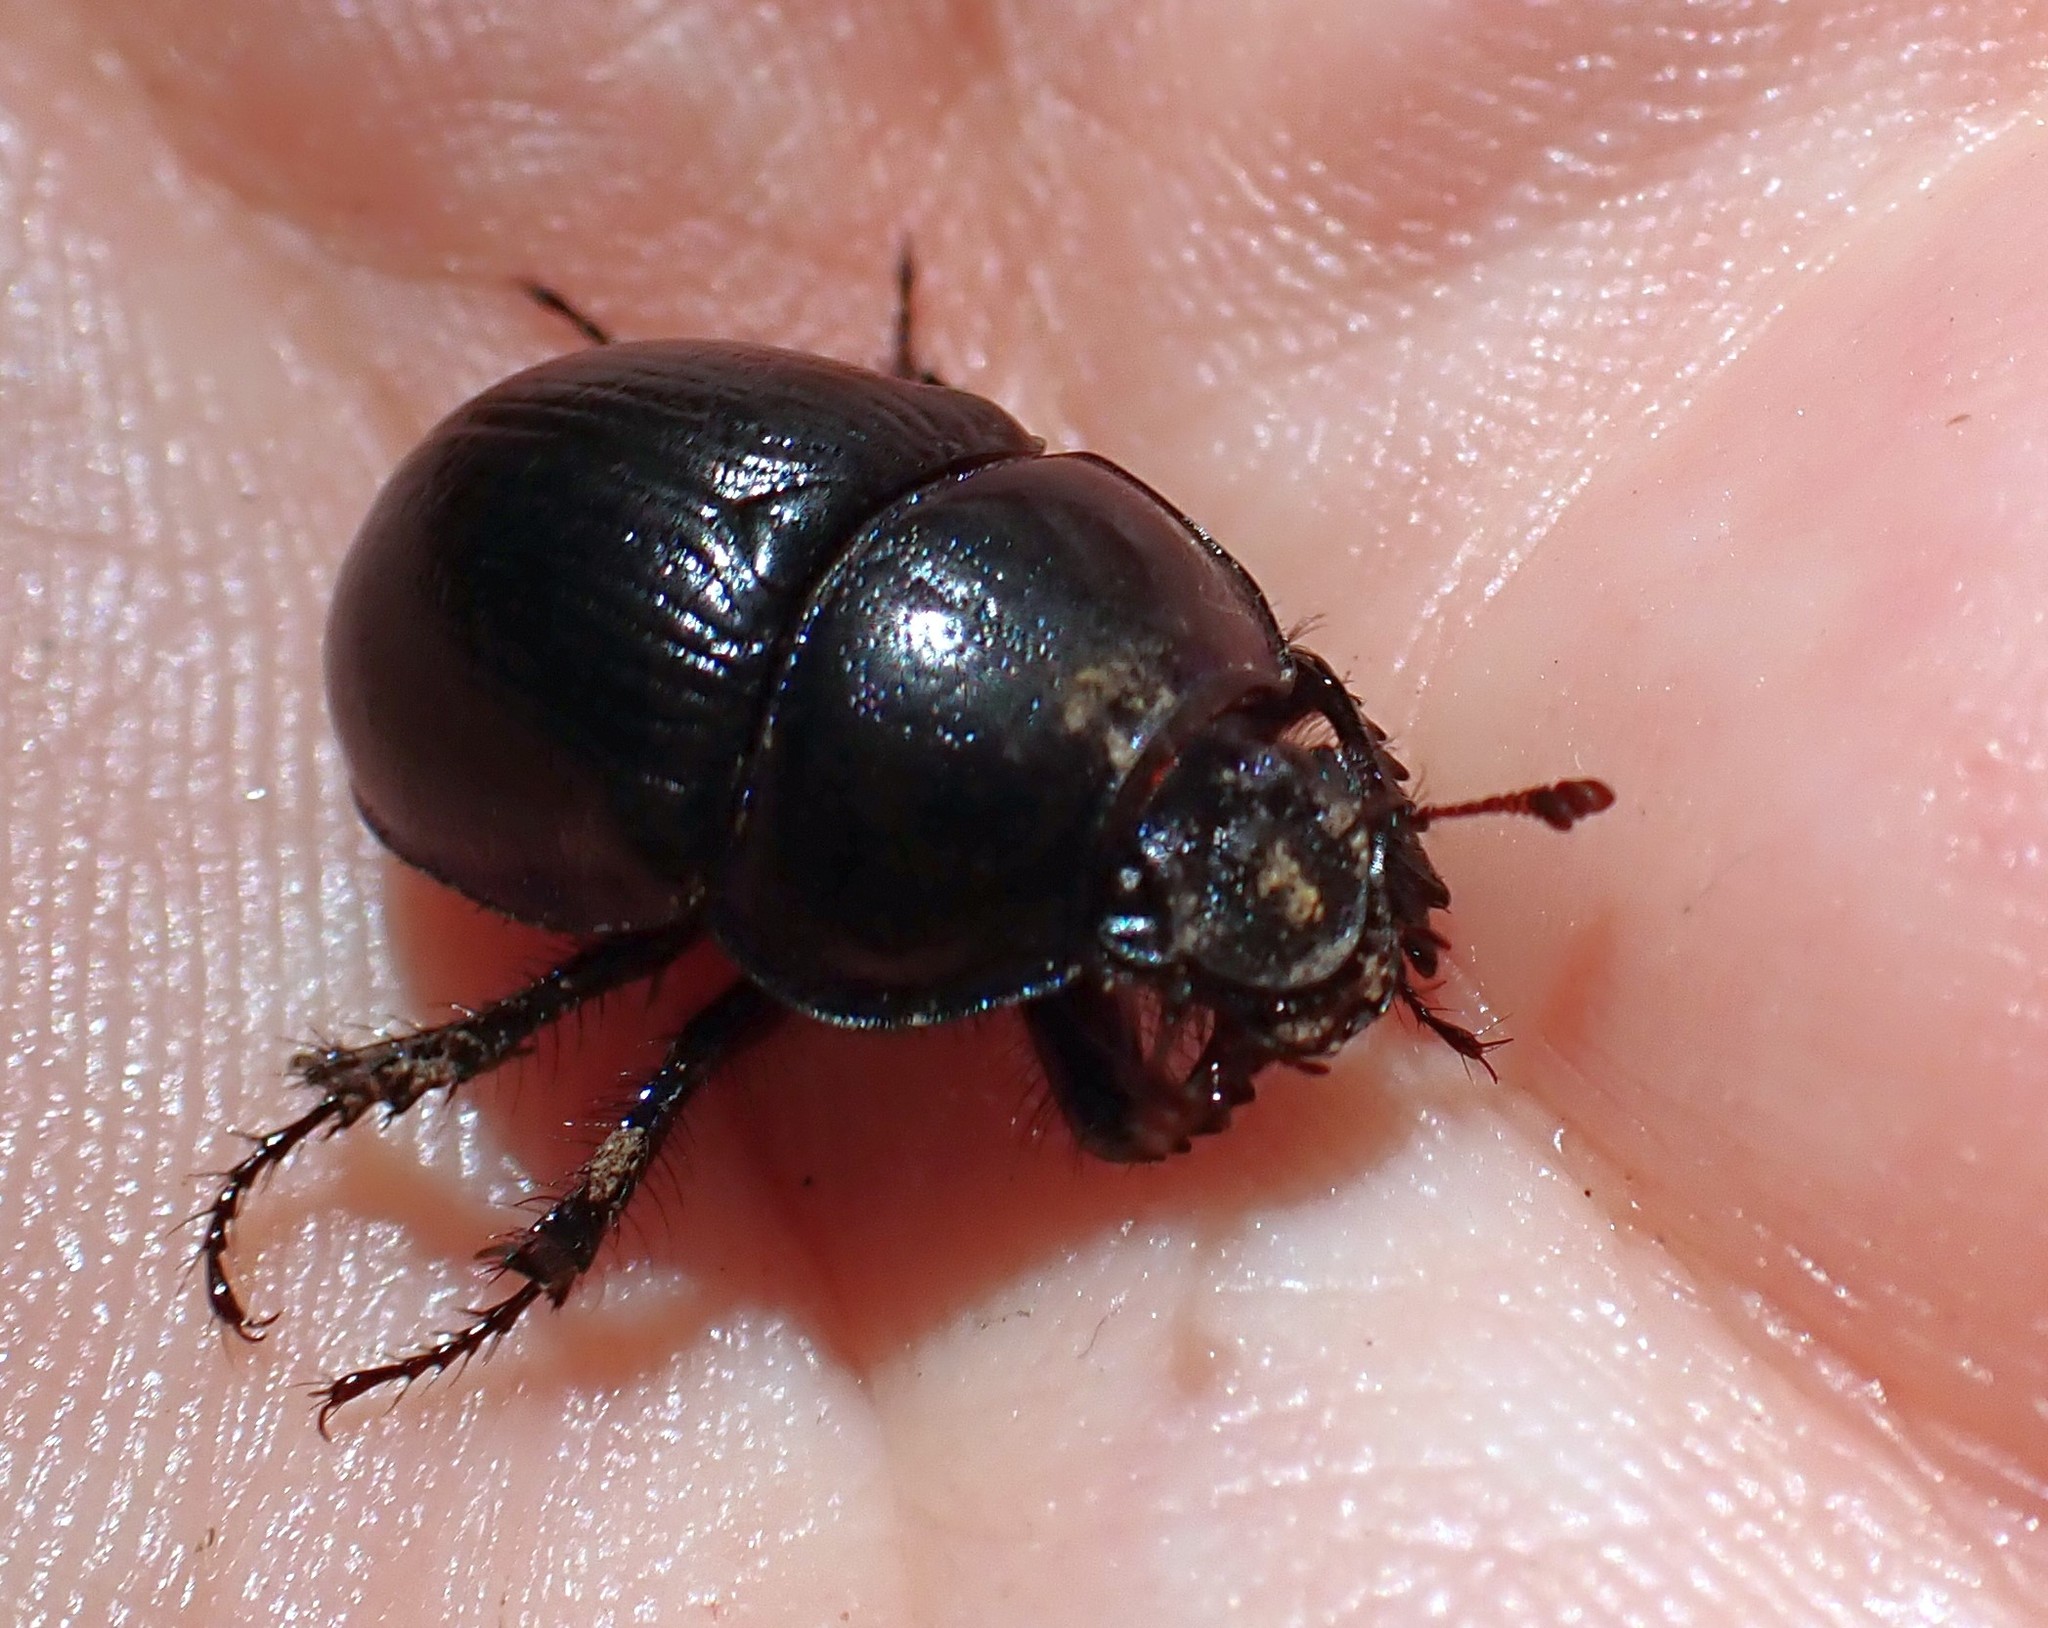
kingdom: Animalia
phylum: Arthropoda
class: Insecta
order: Coleoptera
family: Geotrupidae
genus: Anoplotrupes
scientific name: Anoplotrupes stercorosus
